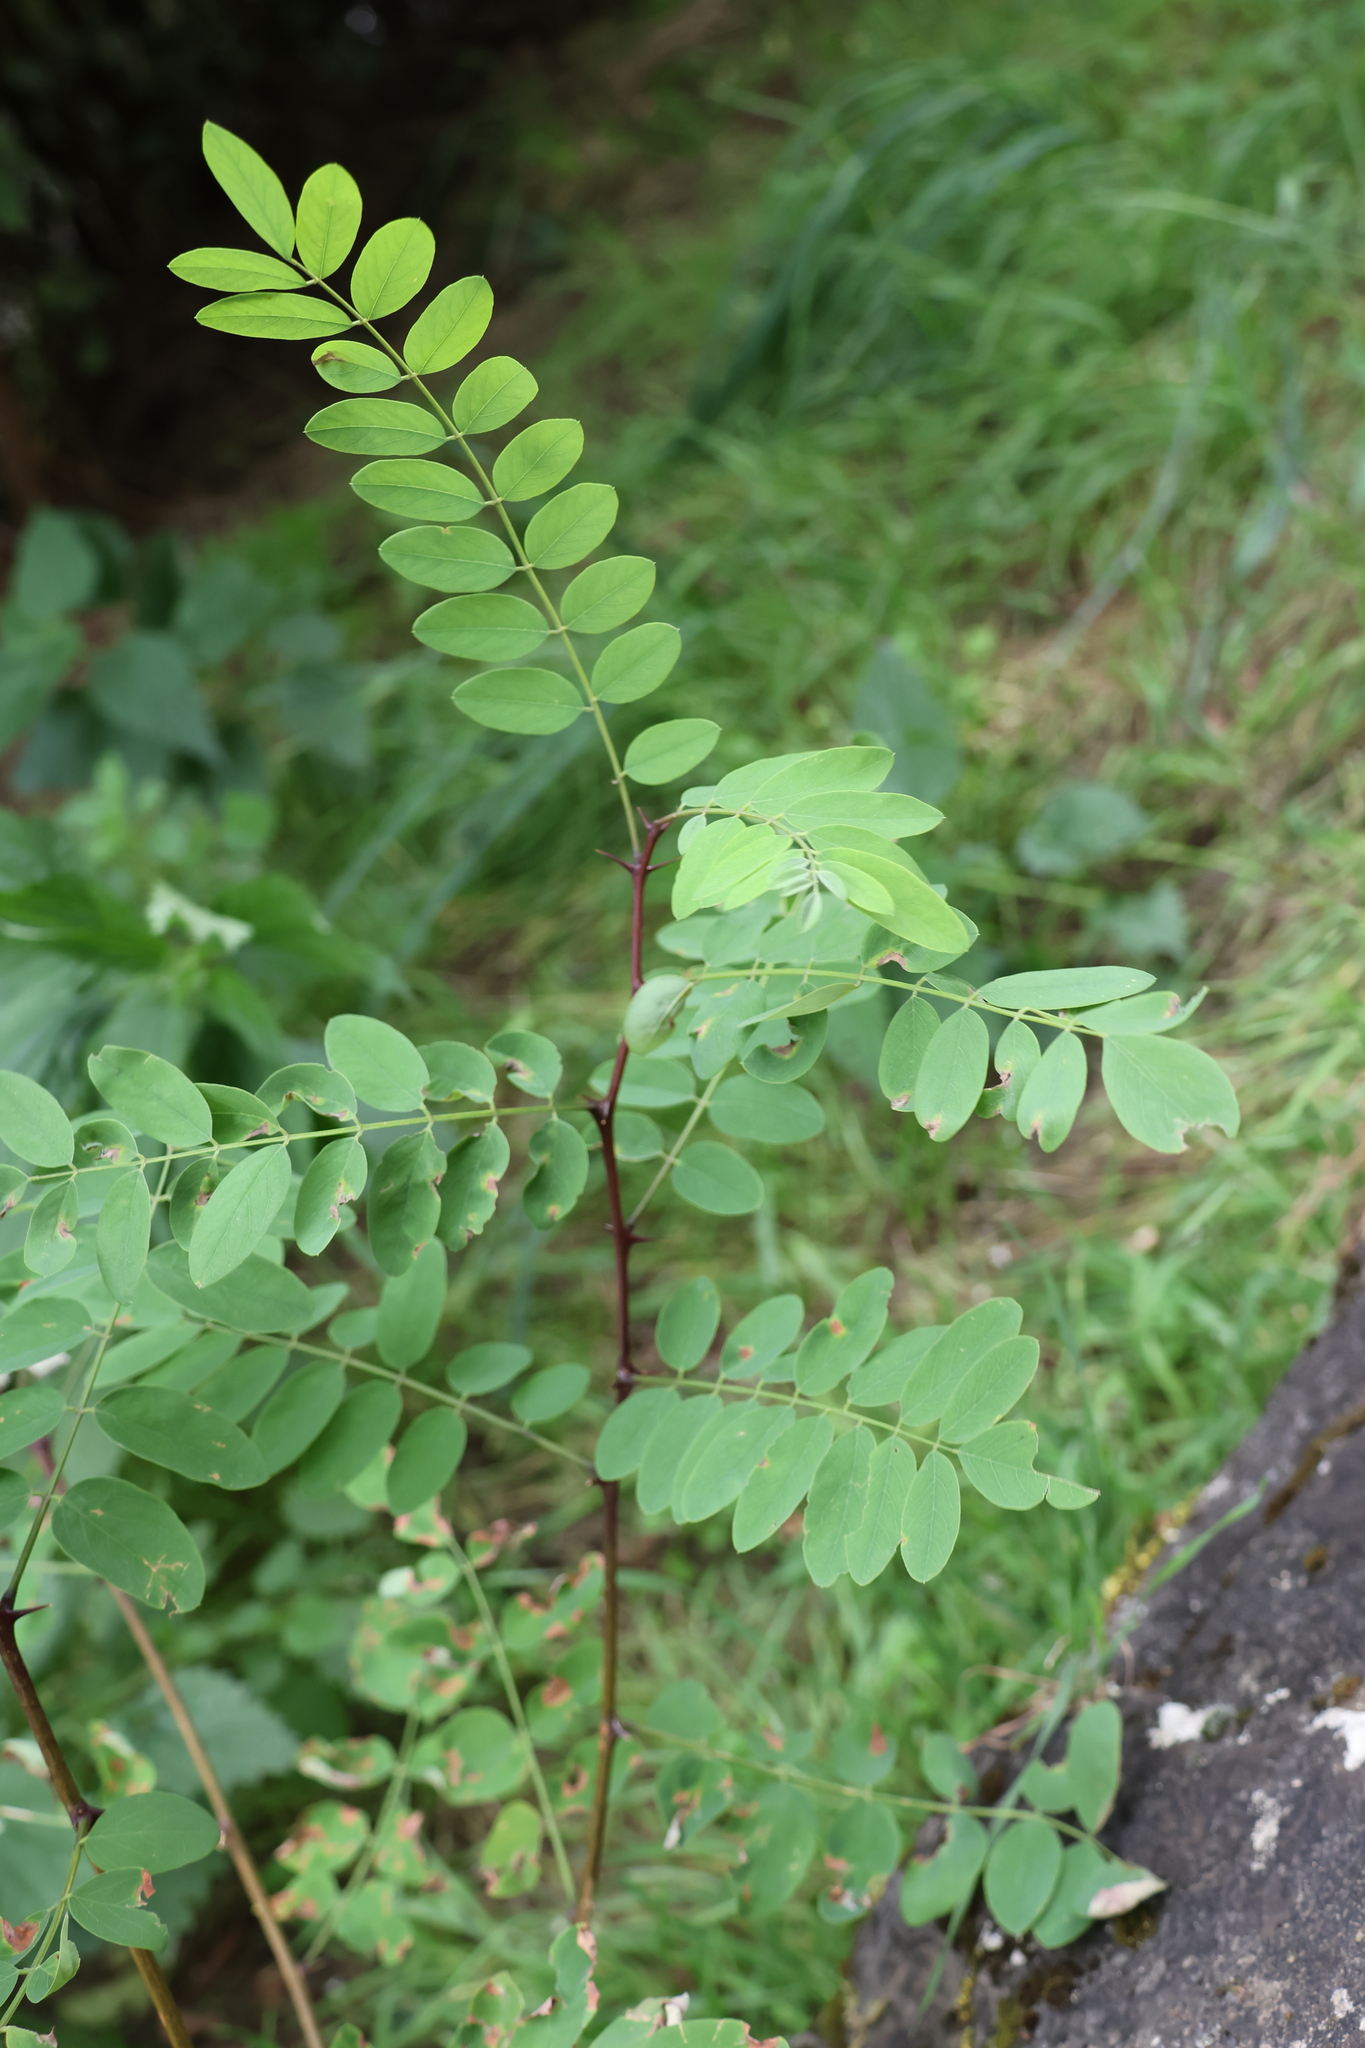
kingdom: Plantae
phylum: Tracheophyta
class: Magnoliopsida
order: Fabales
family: Fabaceae
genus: Robinia
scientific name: Robinia pseudoacacia
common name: Black locust
